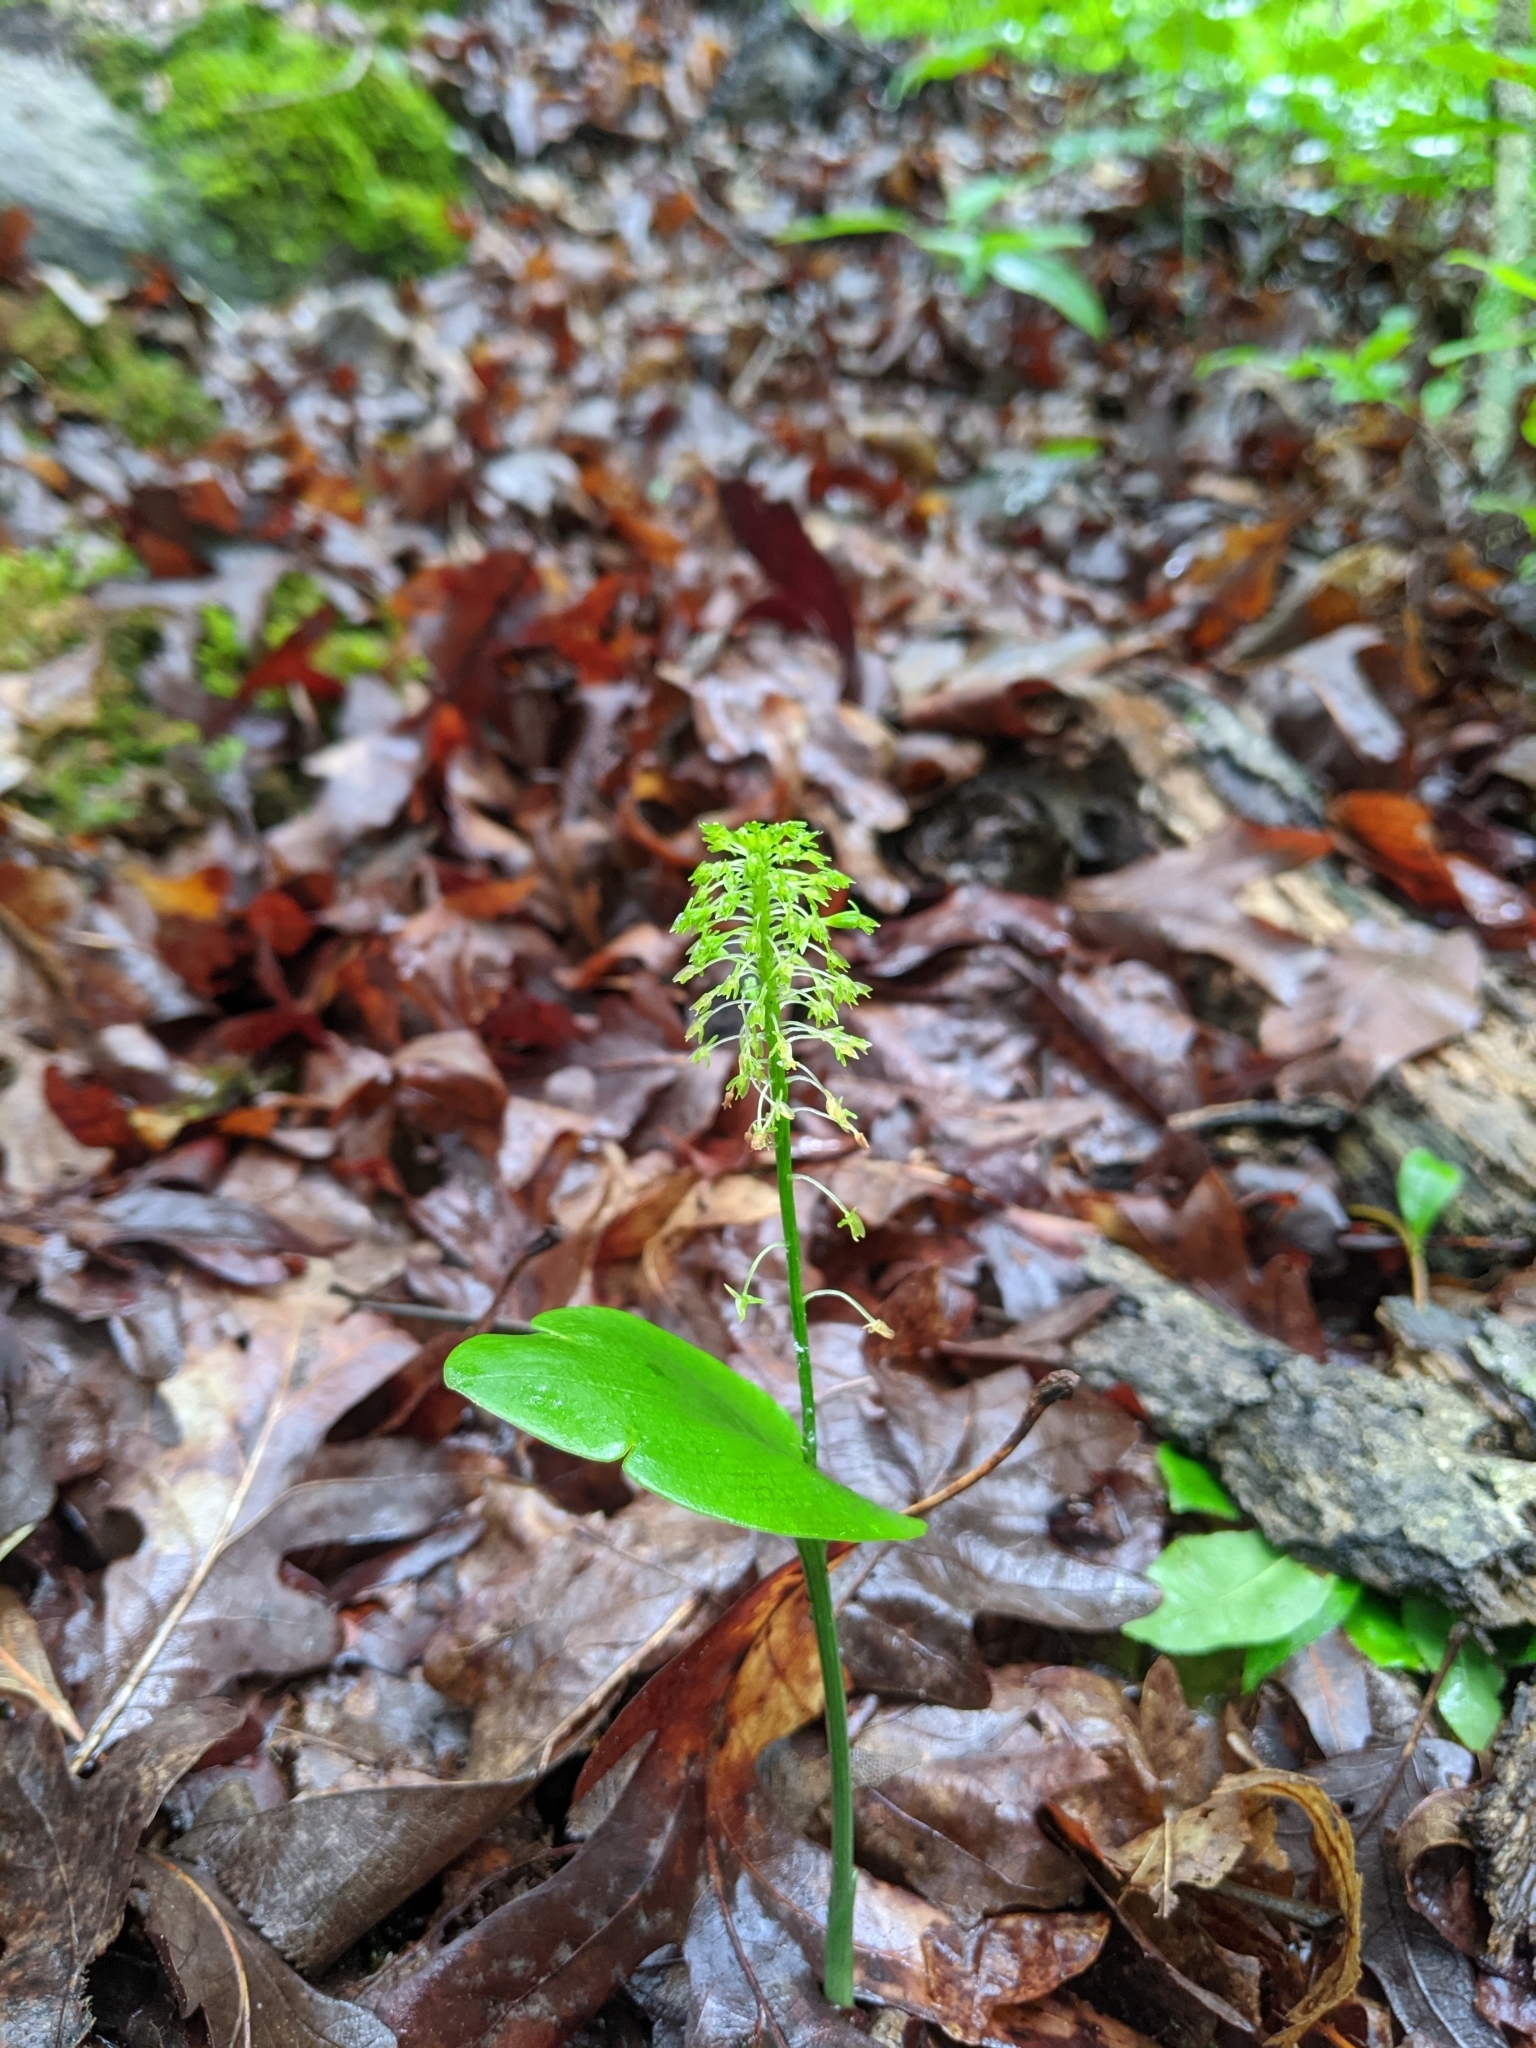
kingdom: Plantae
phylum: Tracheophyta
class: Liliopsida
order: Asparagales
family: Orchidaceae
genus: Malaxis
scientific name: Malaxis unifolia
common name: Green adder's-mouth
